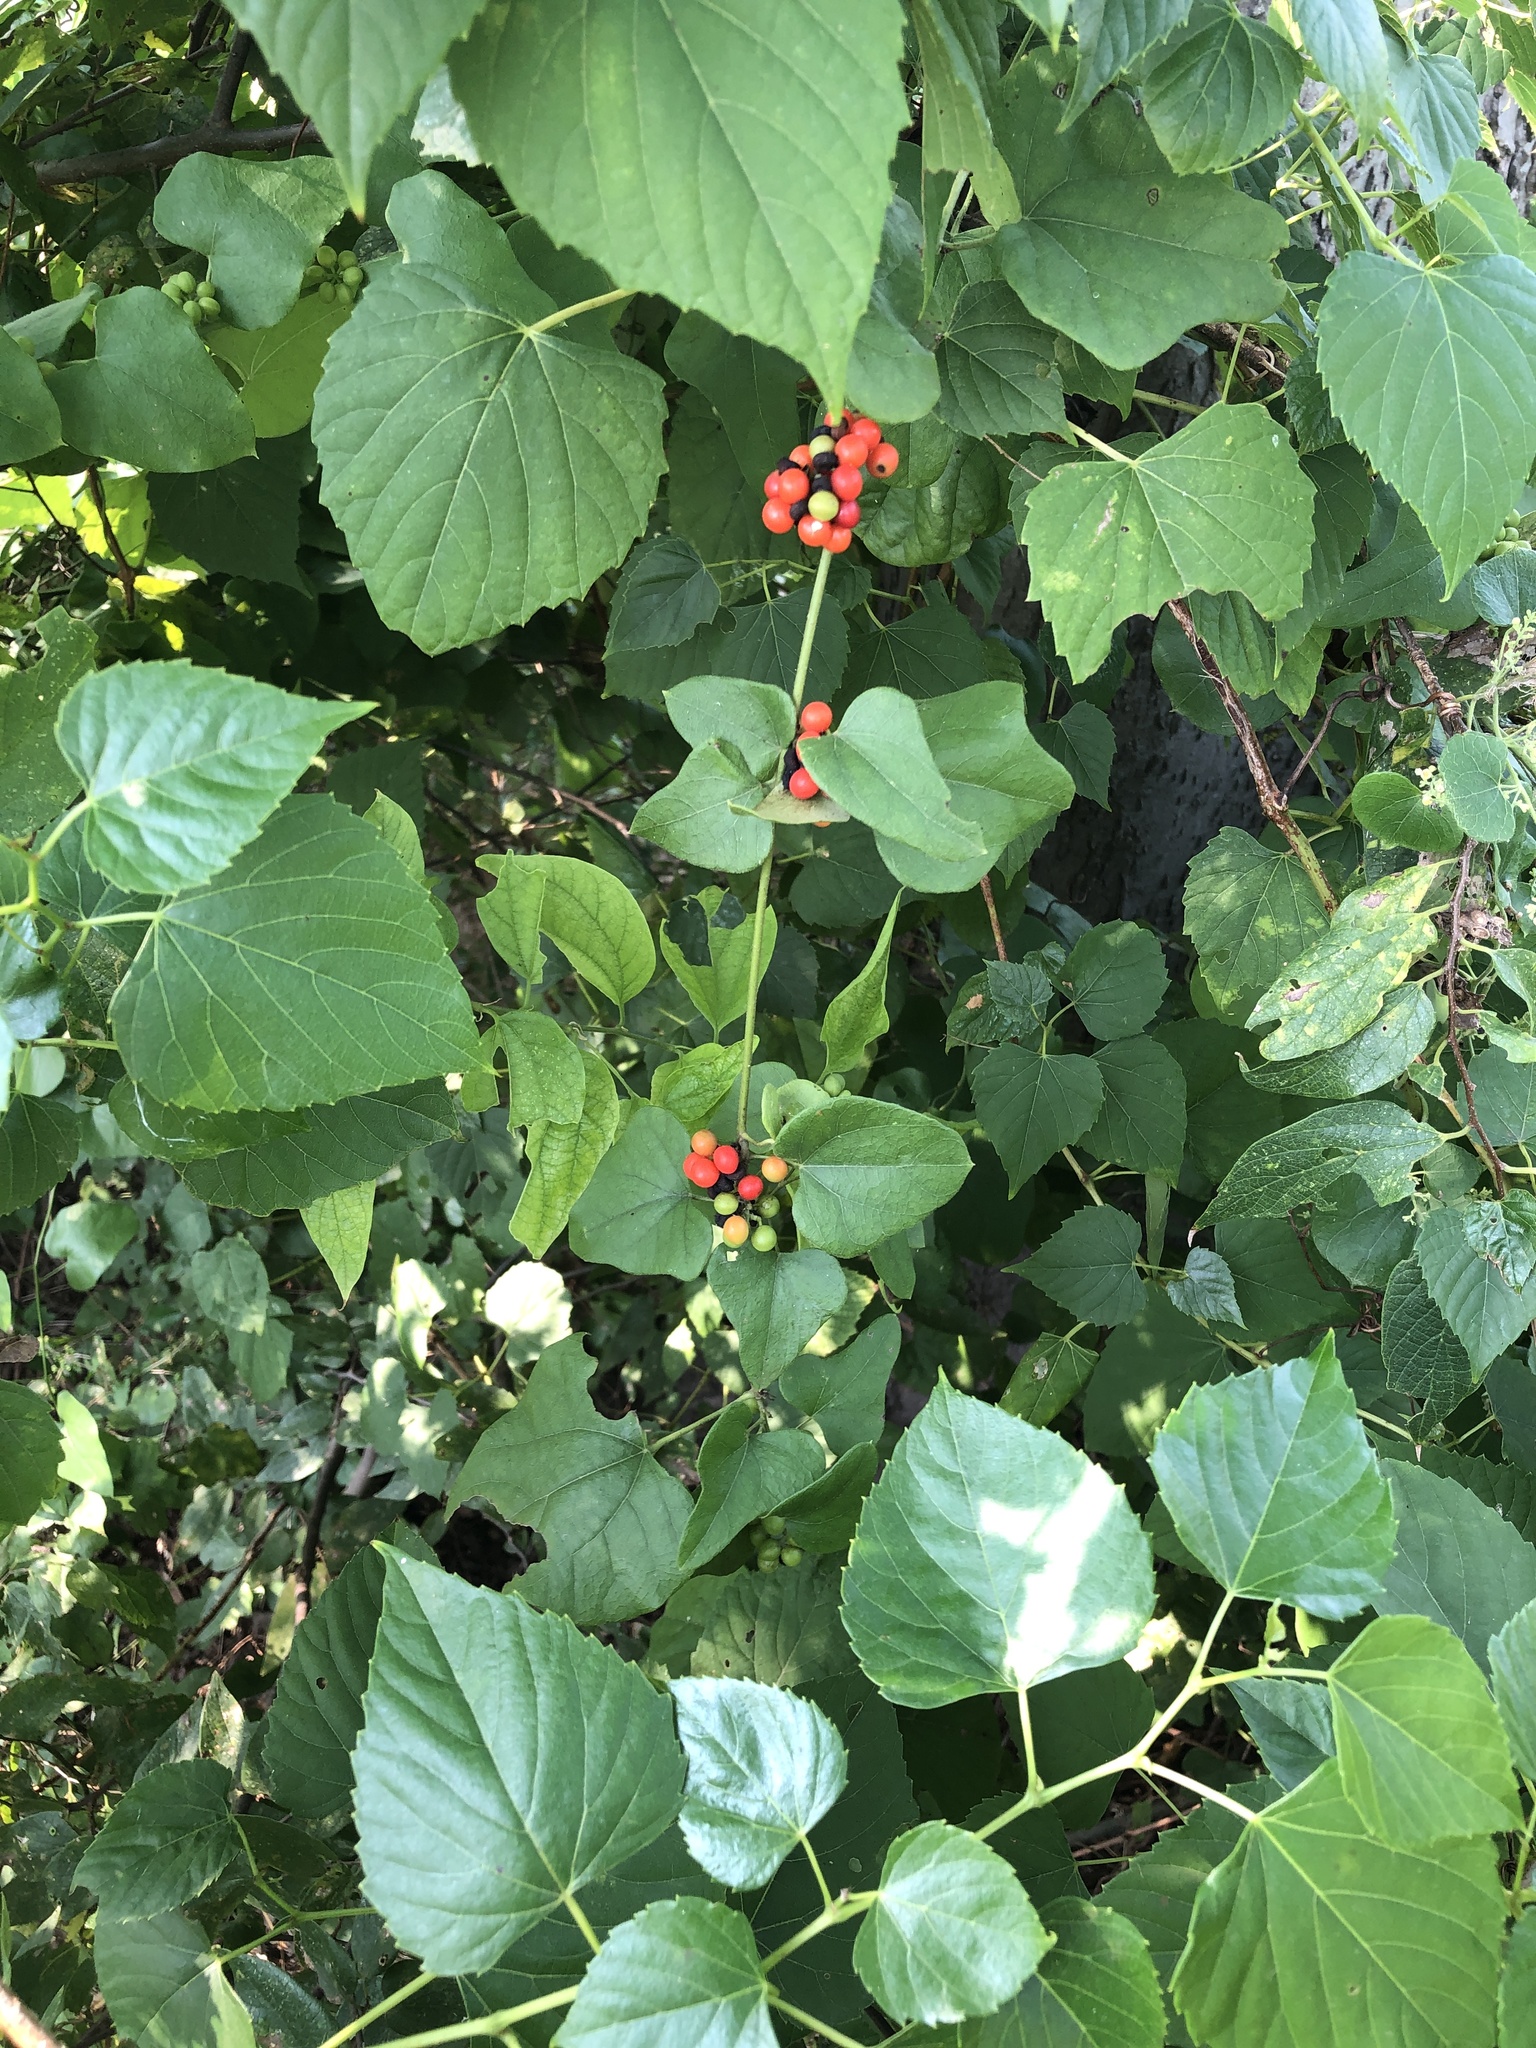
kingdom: Plantae
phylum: Tracheophyta
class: Magnoliopsida
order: Ranunculales
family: Menispermaceae
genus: Cocculus
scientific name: Cocculus carolinus
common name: Carolina moonseed
